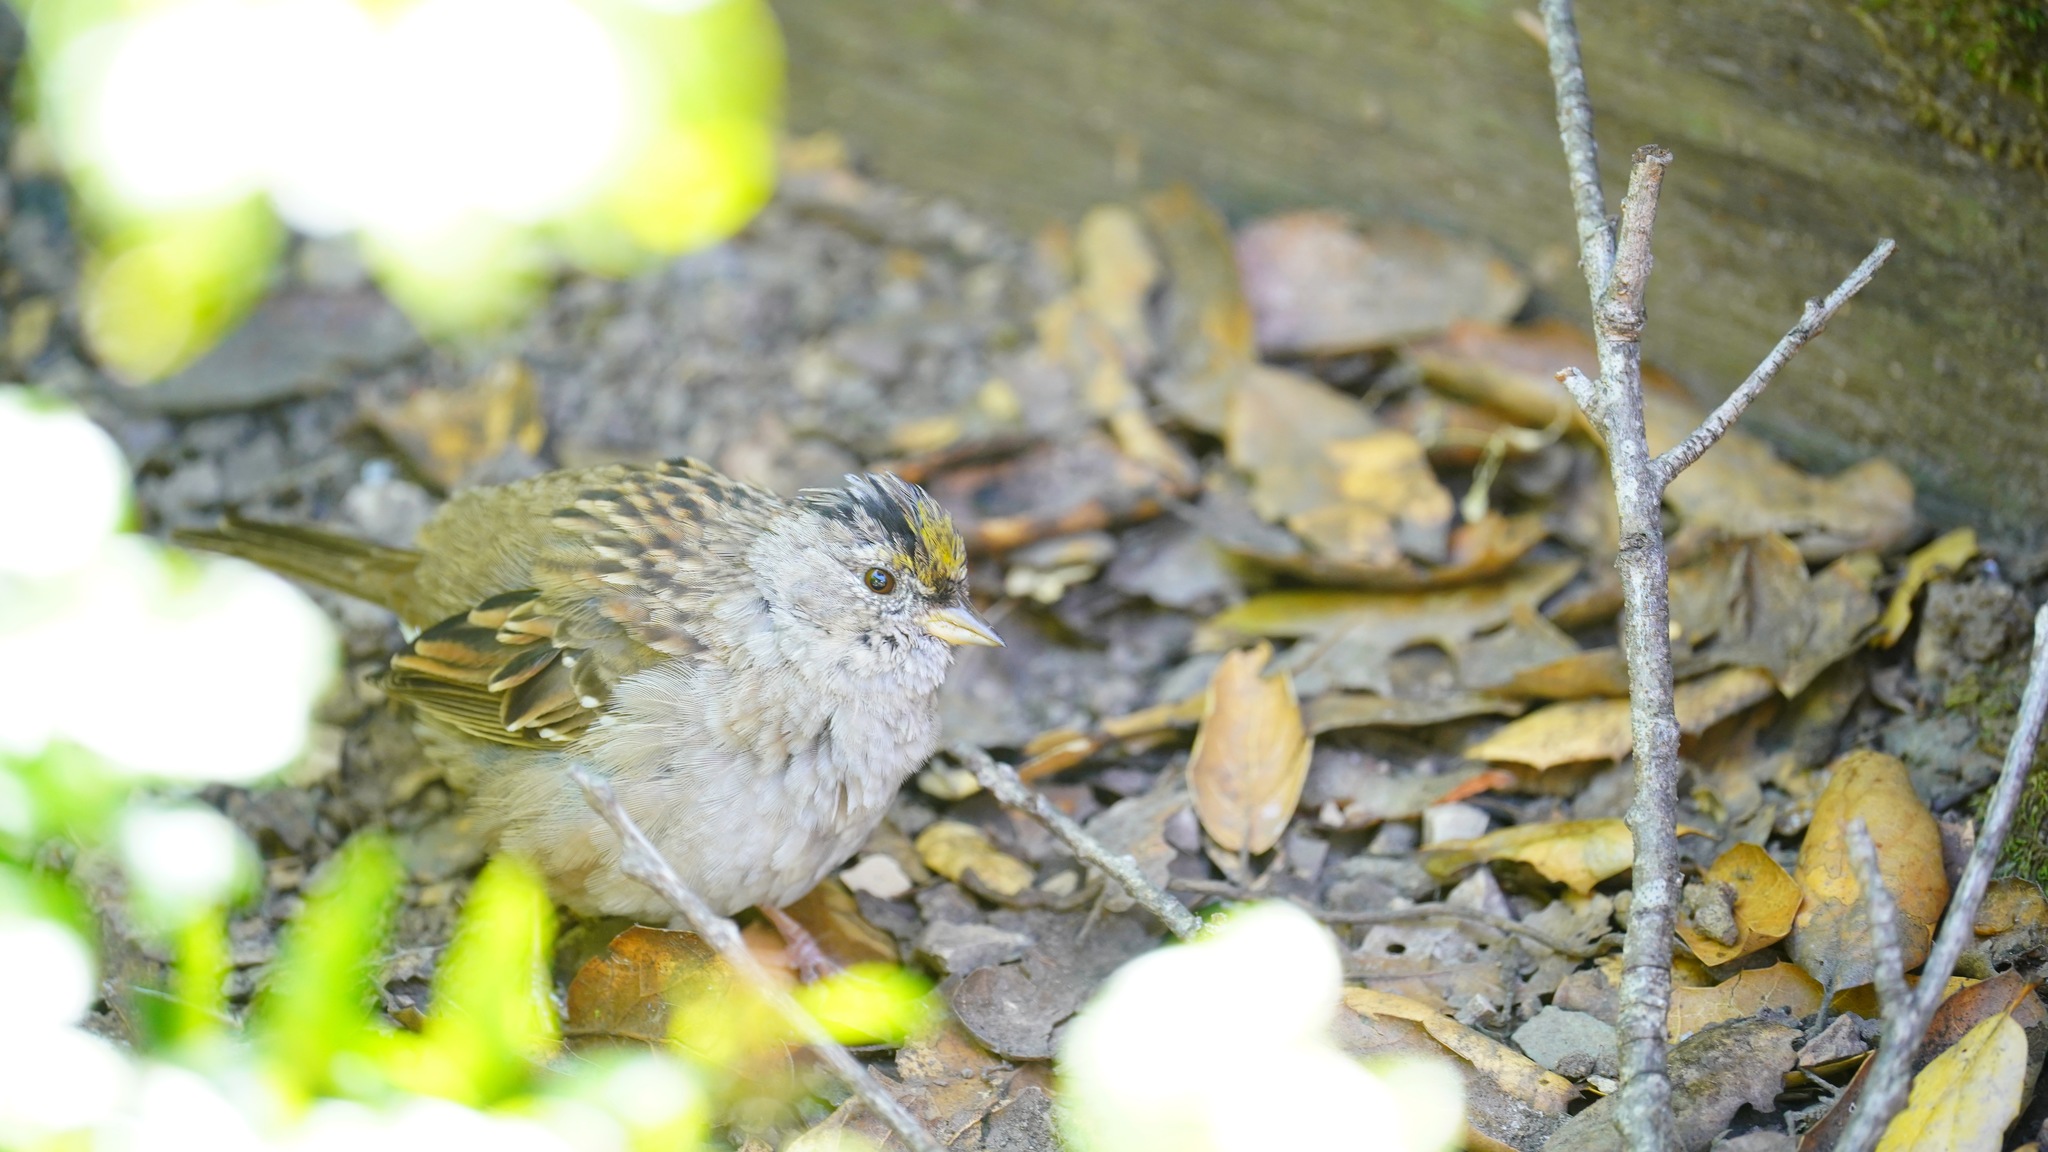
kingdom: Animalia
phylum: Chordata
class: Aves
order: Passeriformes
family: Passerellidae
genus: Zonotrichia
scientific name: Zonotrichia atricapilla
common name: Golden-crowned sparrow
